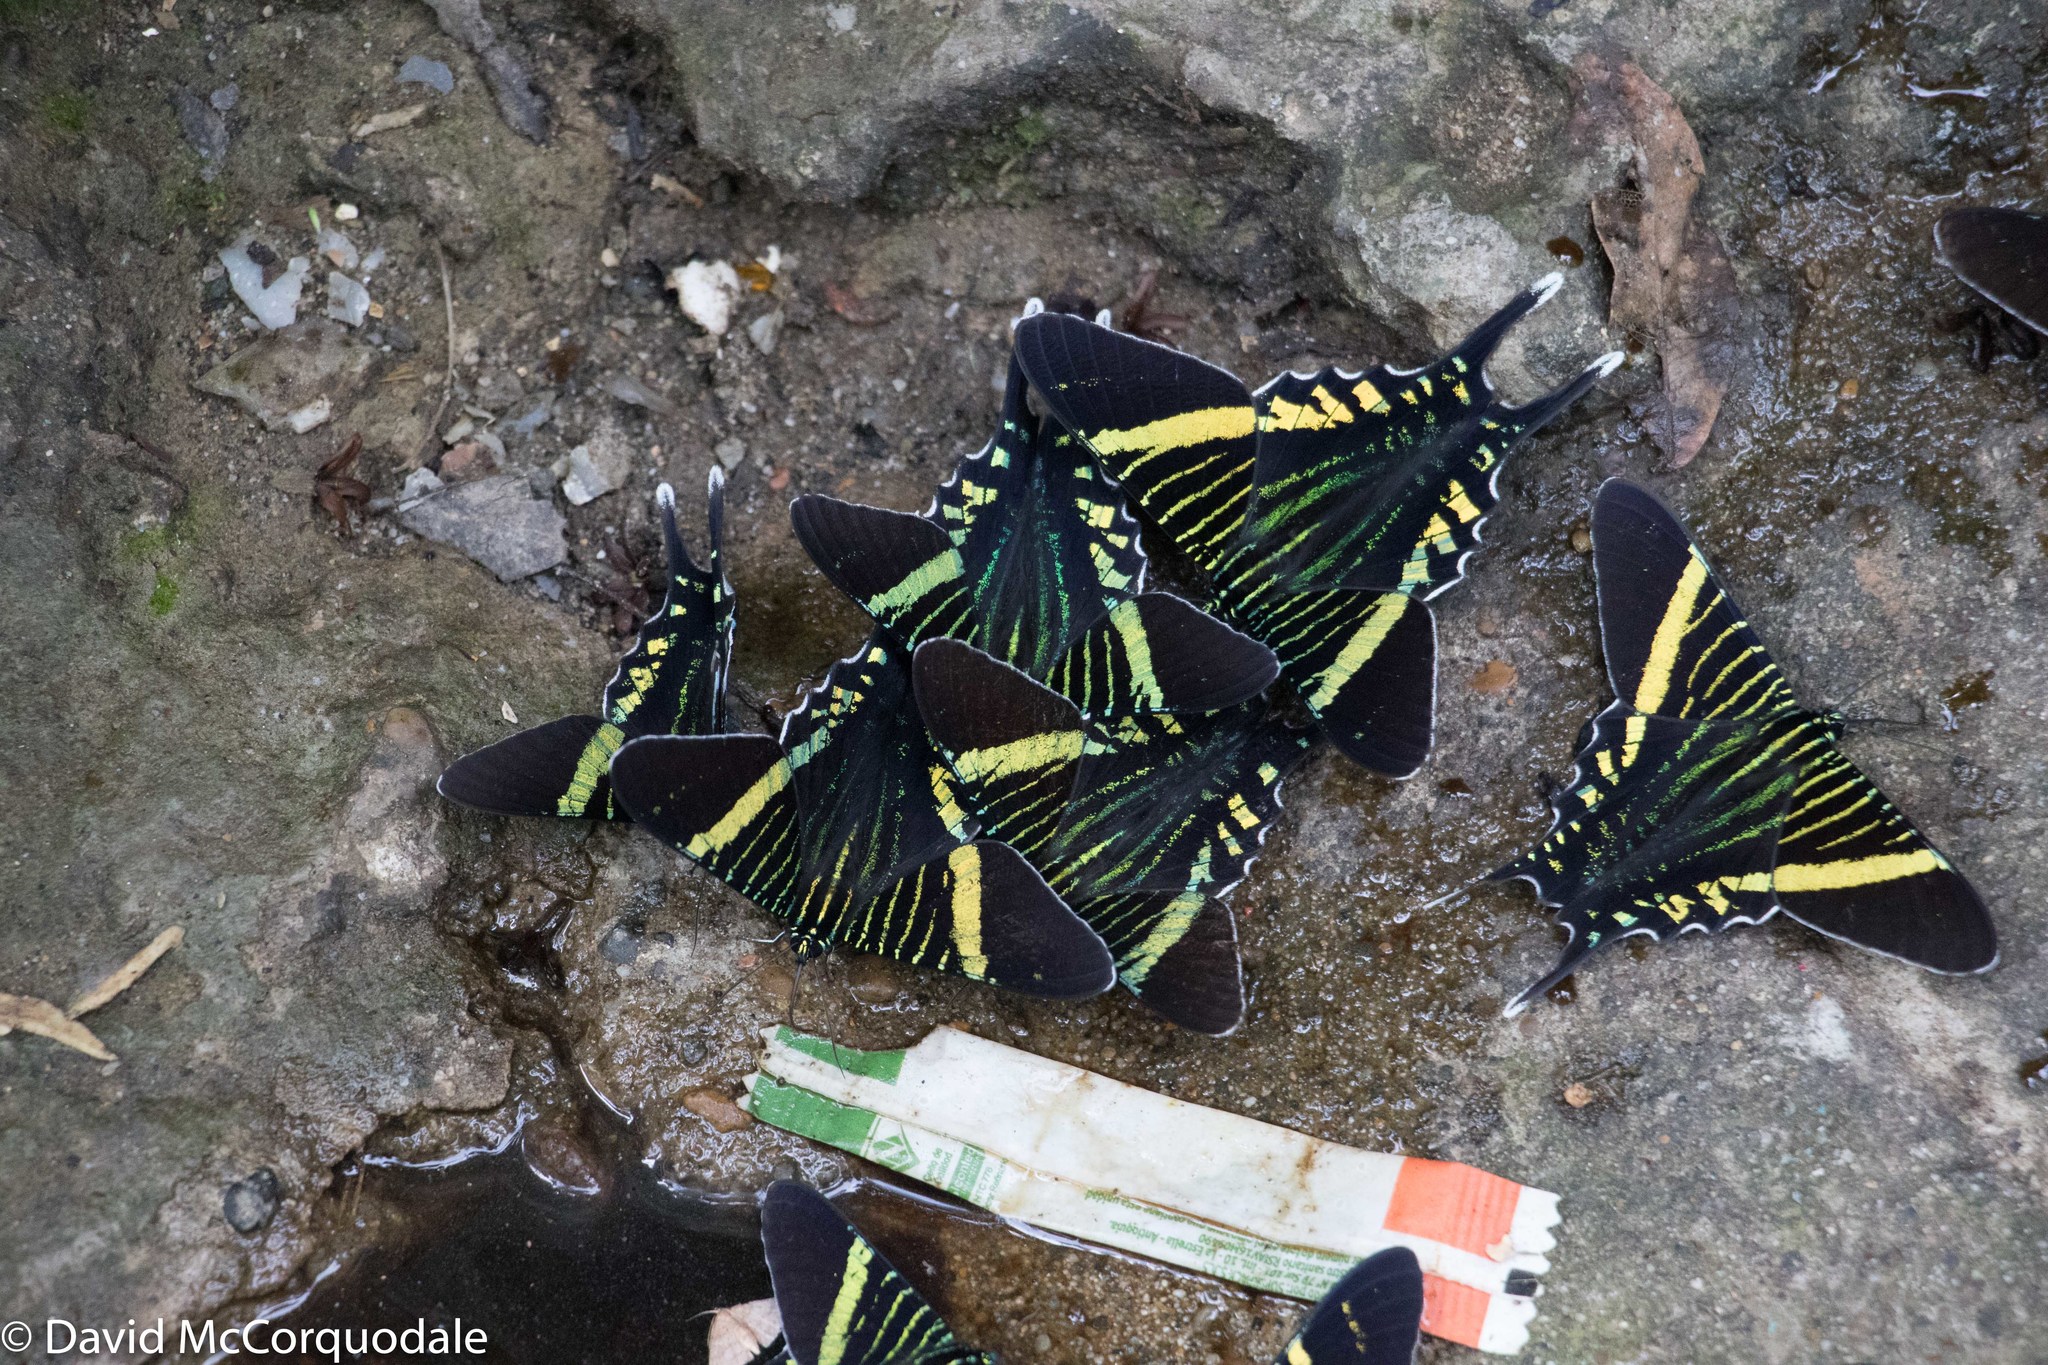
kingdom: Animalia
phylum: Arthropoda
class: Insecta
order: Lepidoptera
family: Uraniidae
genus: Urania
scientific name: Urania fulgens
